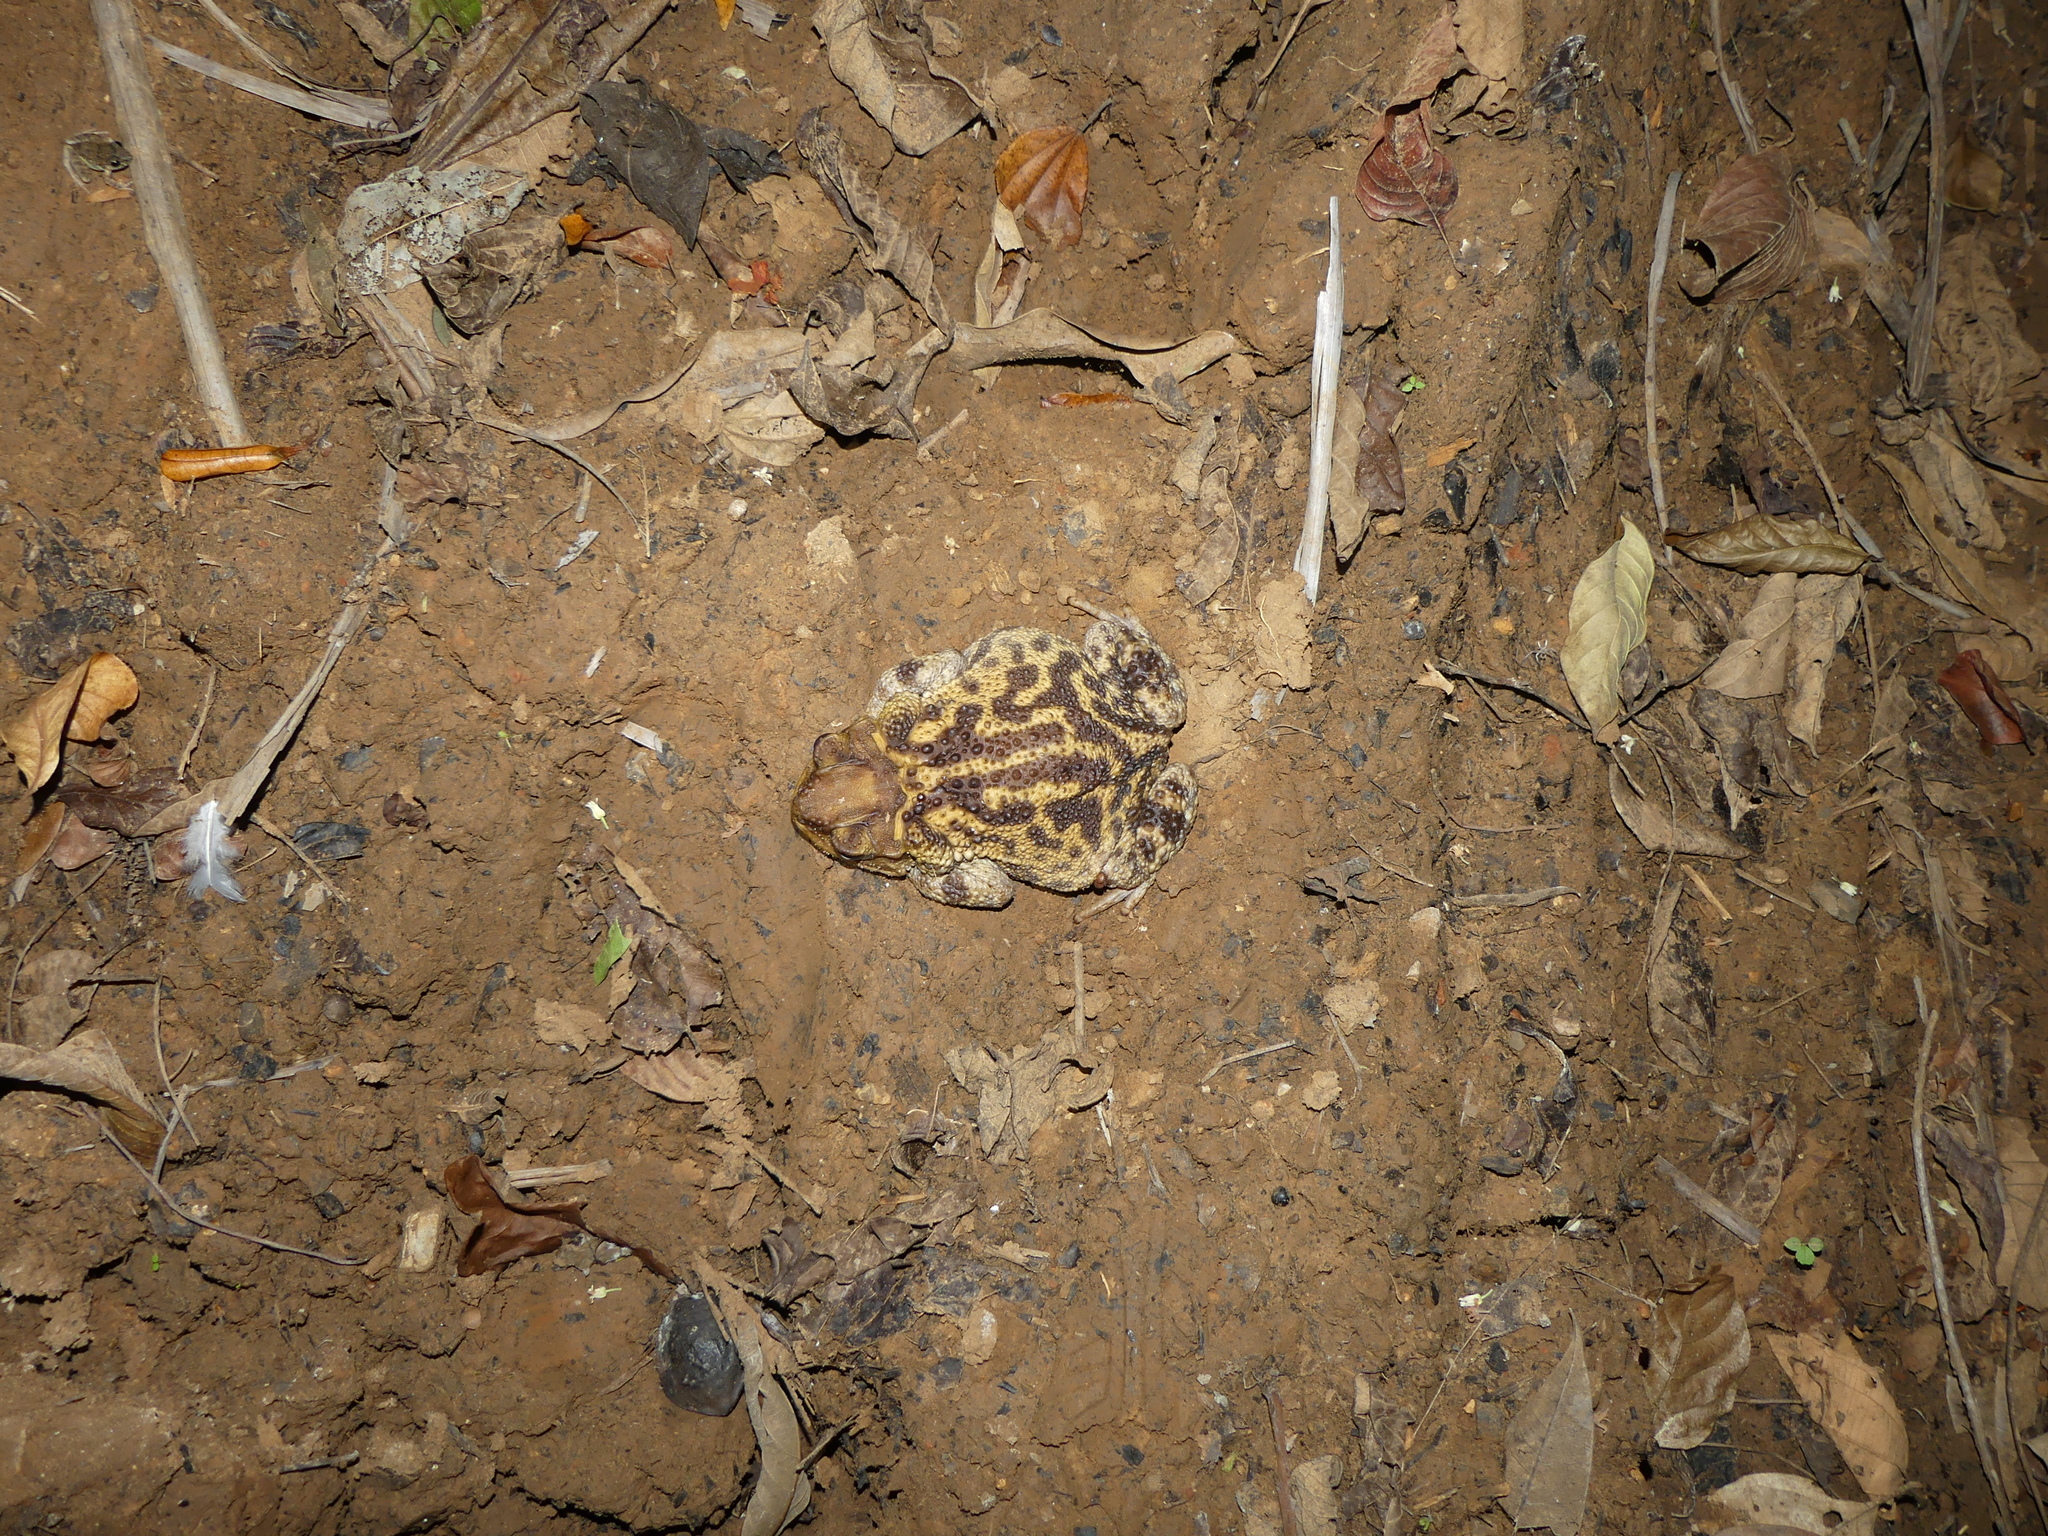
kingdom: Animalia
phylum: Chordata
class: Amphibia
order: Anura
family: Bufonidae
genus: Peltophryne
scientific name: Peltophryne fustiger
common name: Western cuba giant toad
